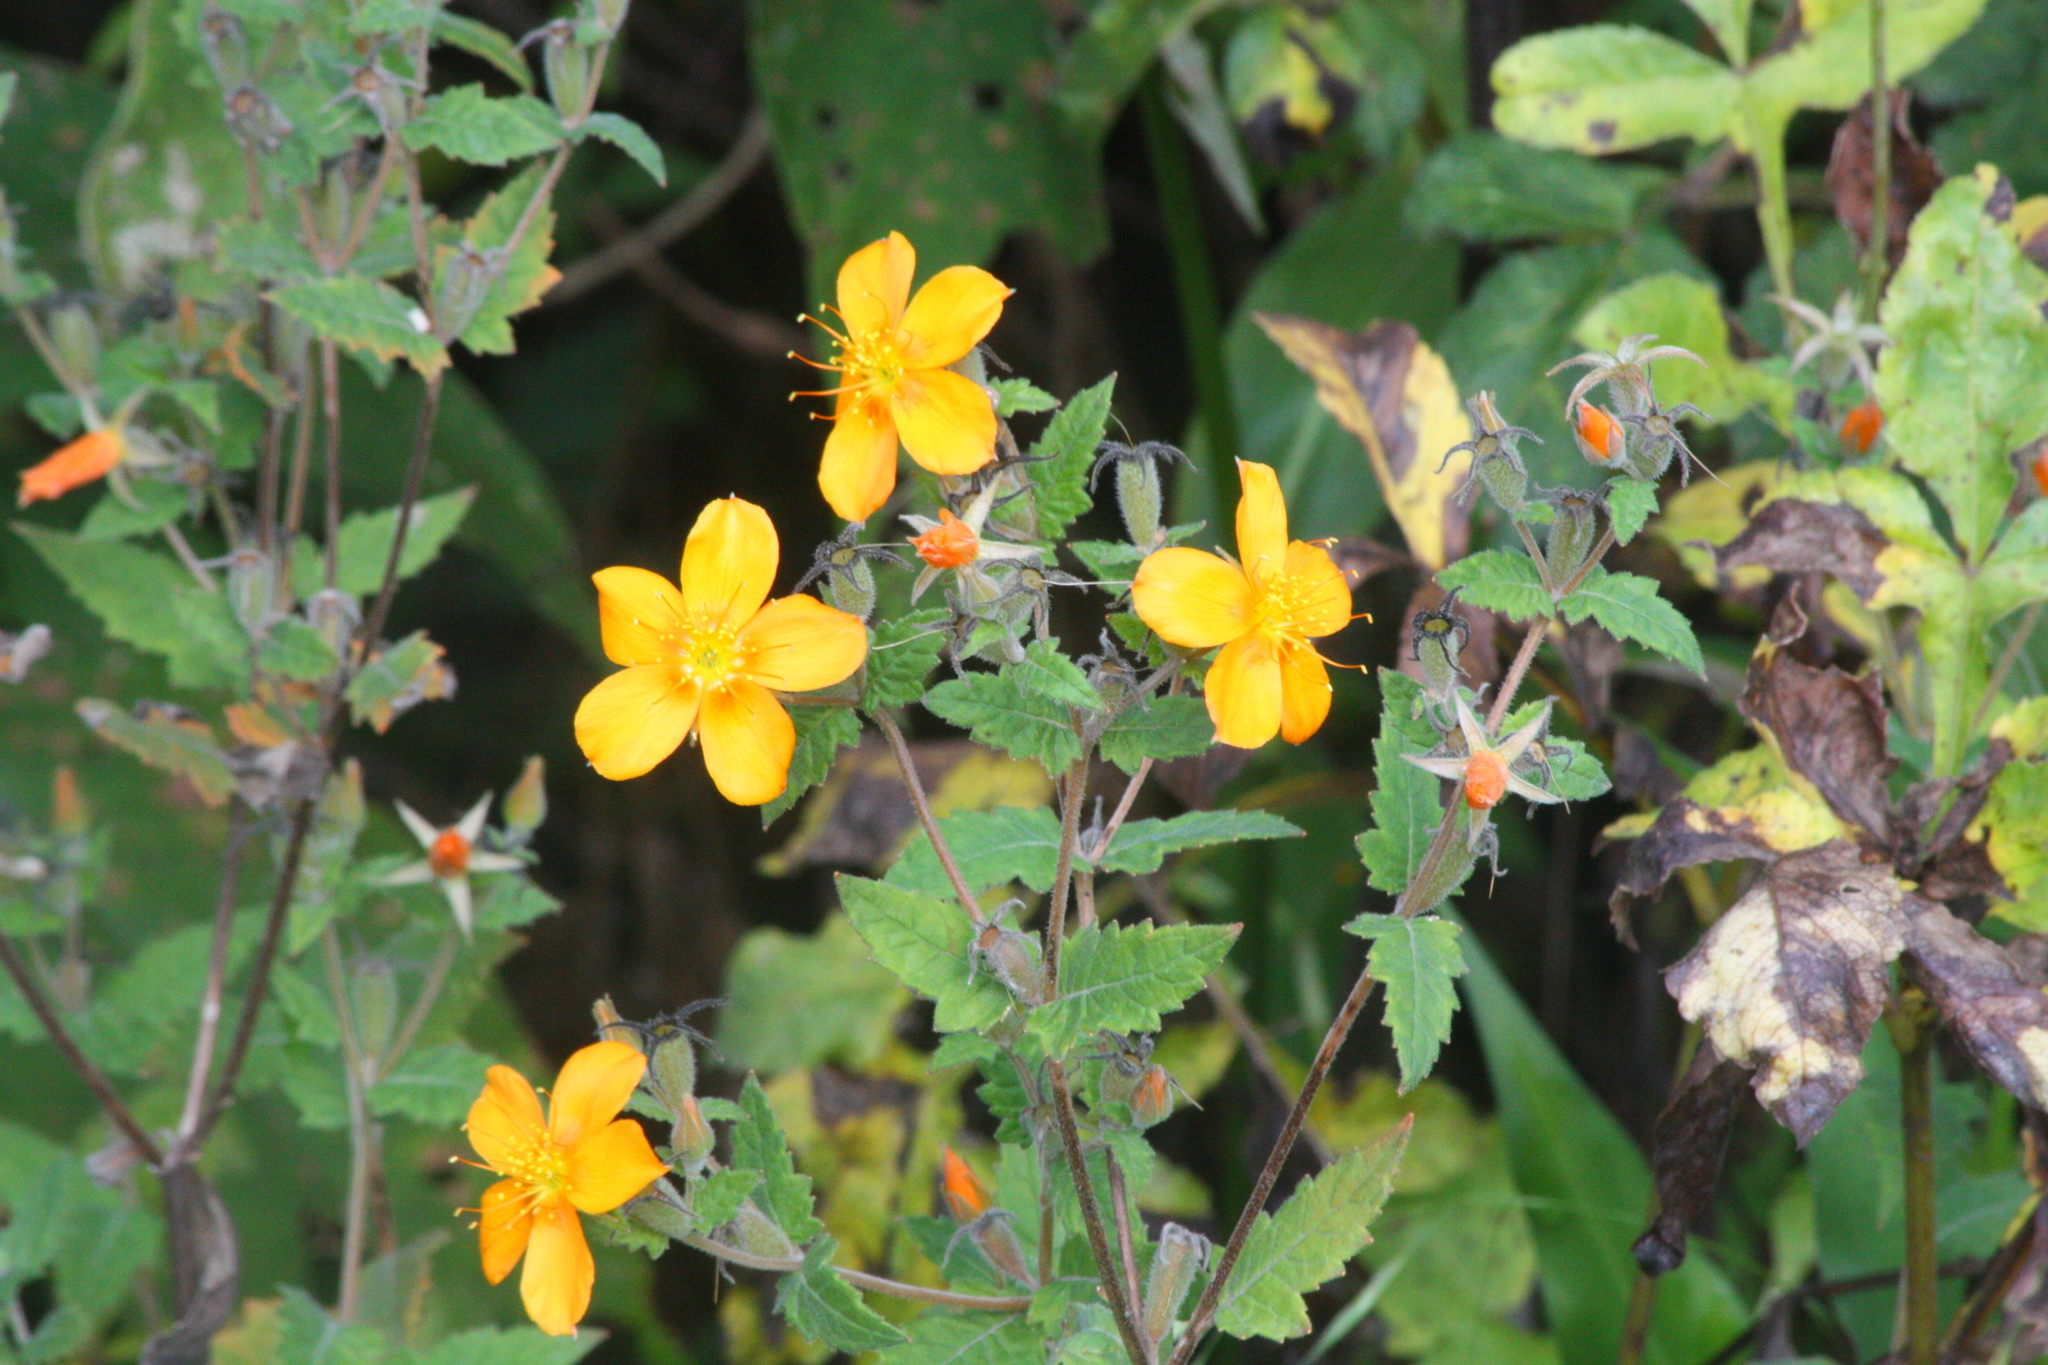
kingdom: Plantae
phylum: Tracheophyta
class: Magnoliopsida
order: Cornales
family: Loasaceae
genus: Mentzelia
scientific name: Mentzelia hispida
